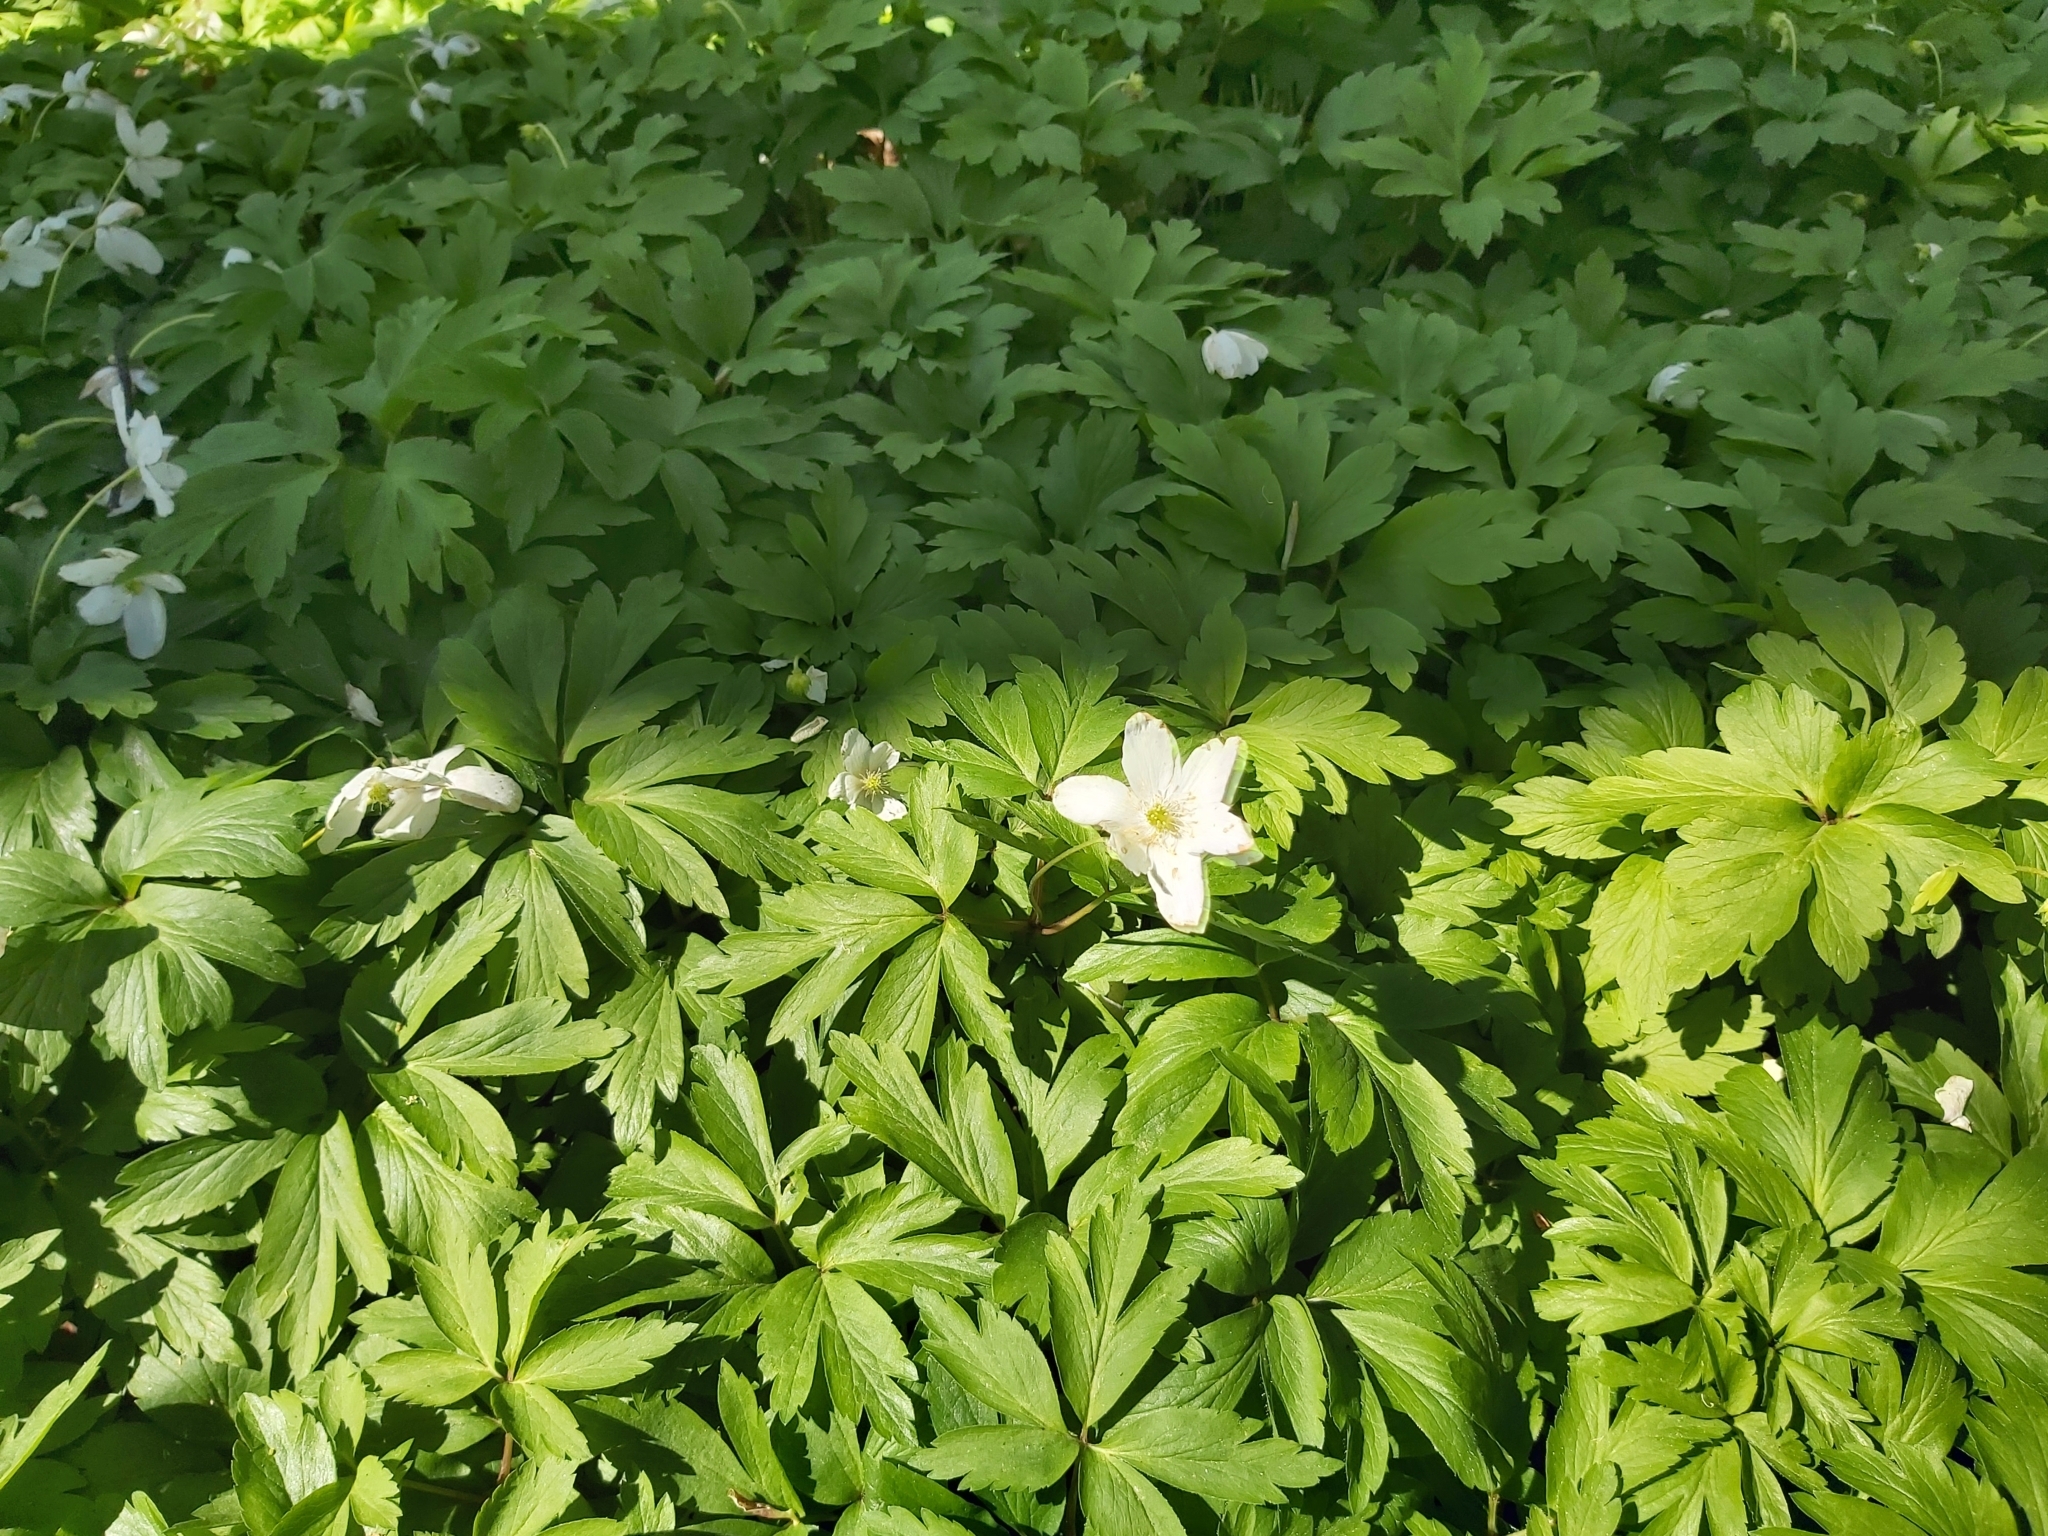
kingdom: Plantae
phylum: Tracheophyta
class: Magnoliopsida
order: Ranunculales
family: Ranunculaceae
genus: Anemone
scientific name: Anemone nemorosa
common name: Wood anemone
